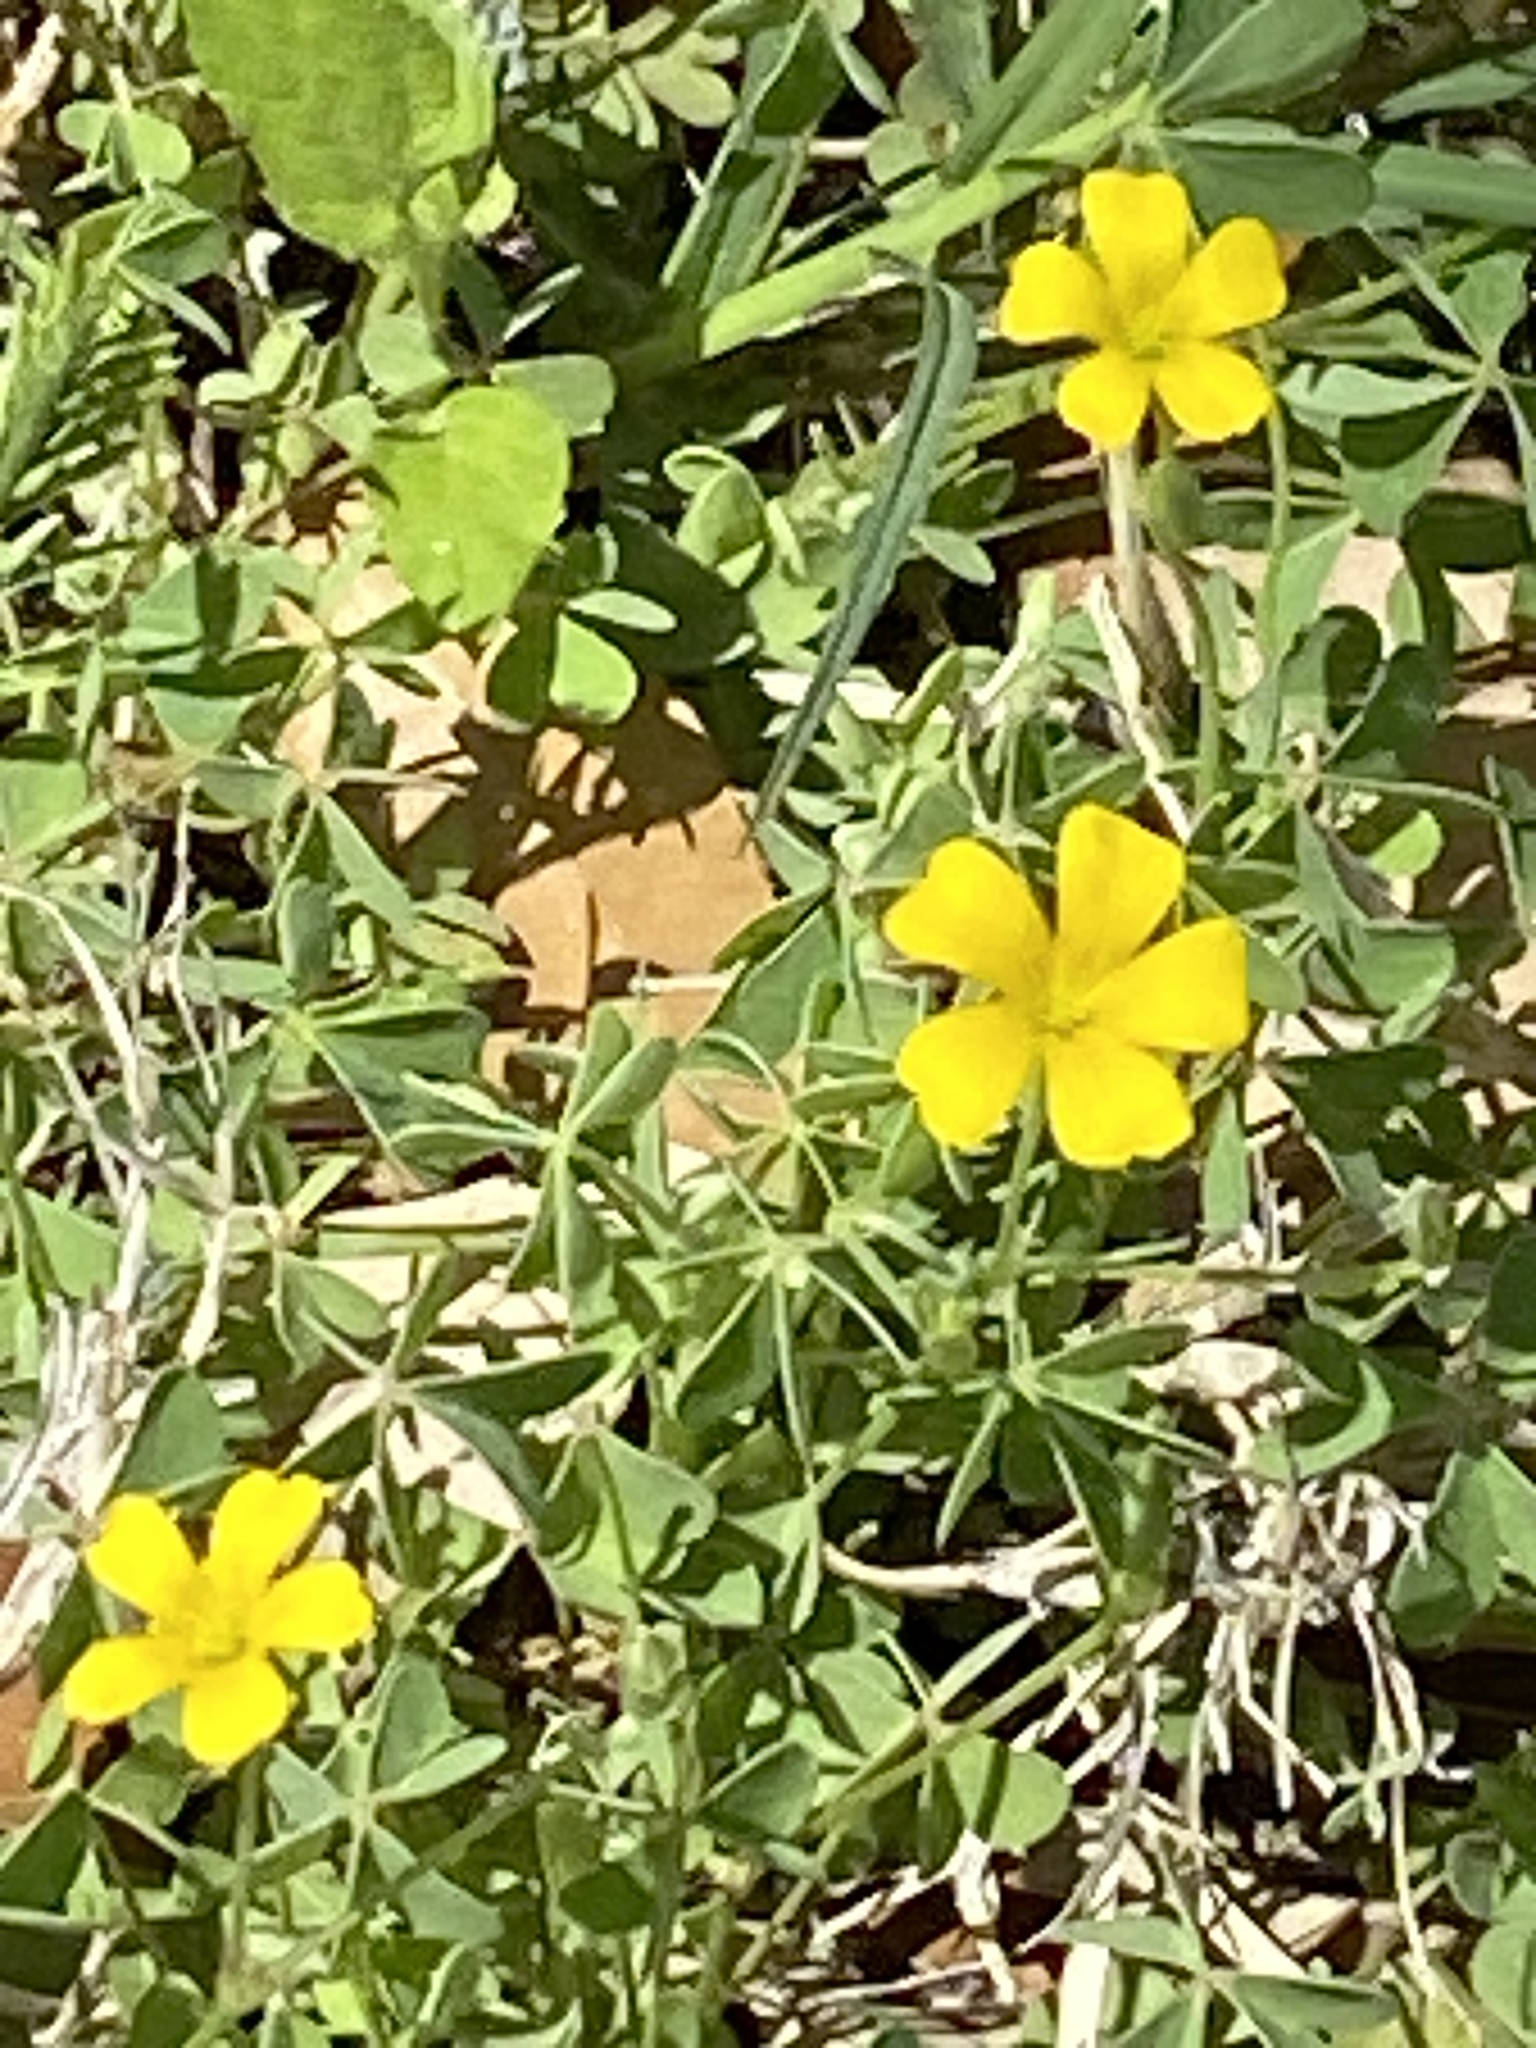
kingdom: Plantae
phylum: Tracheophyta
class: Magnoliopsida
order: Oxalidales
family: Oxalidaceae
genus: Oxalis
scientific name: Oxalis dillenii
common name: Sussex yellow-sorrel
